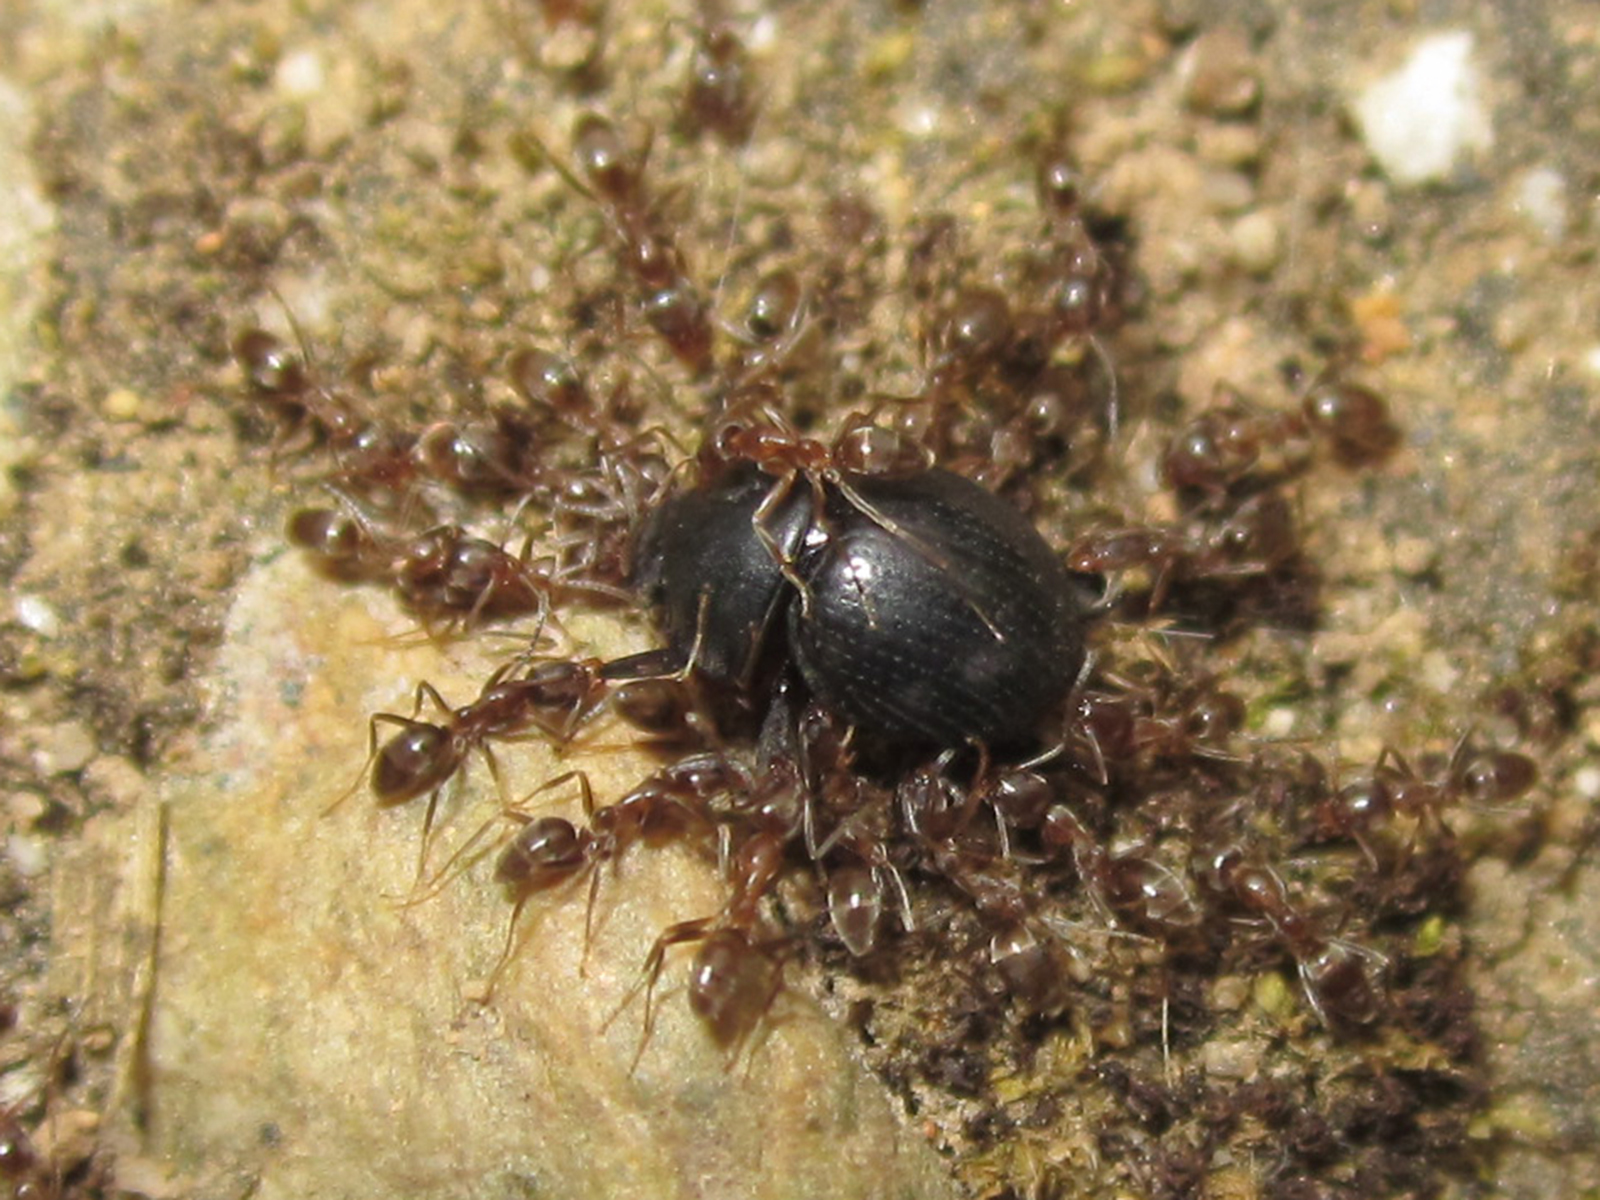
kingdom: Animalia
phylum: Arthropoda
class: Insecta
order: Hymenoptera
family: Formicidae
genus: Linepithema
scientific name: Linepithema humile
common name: Argentine ant
